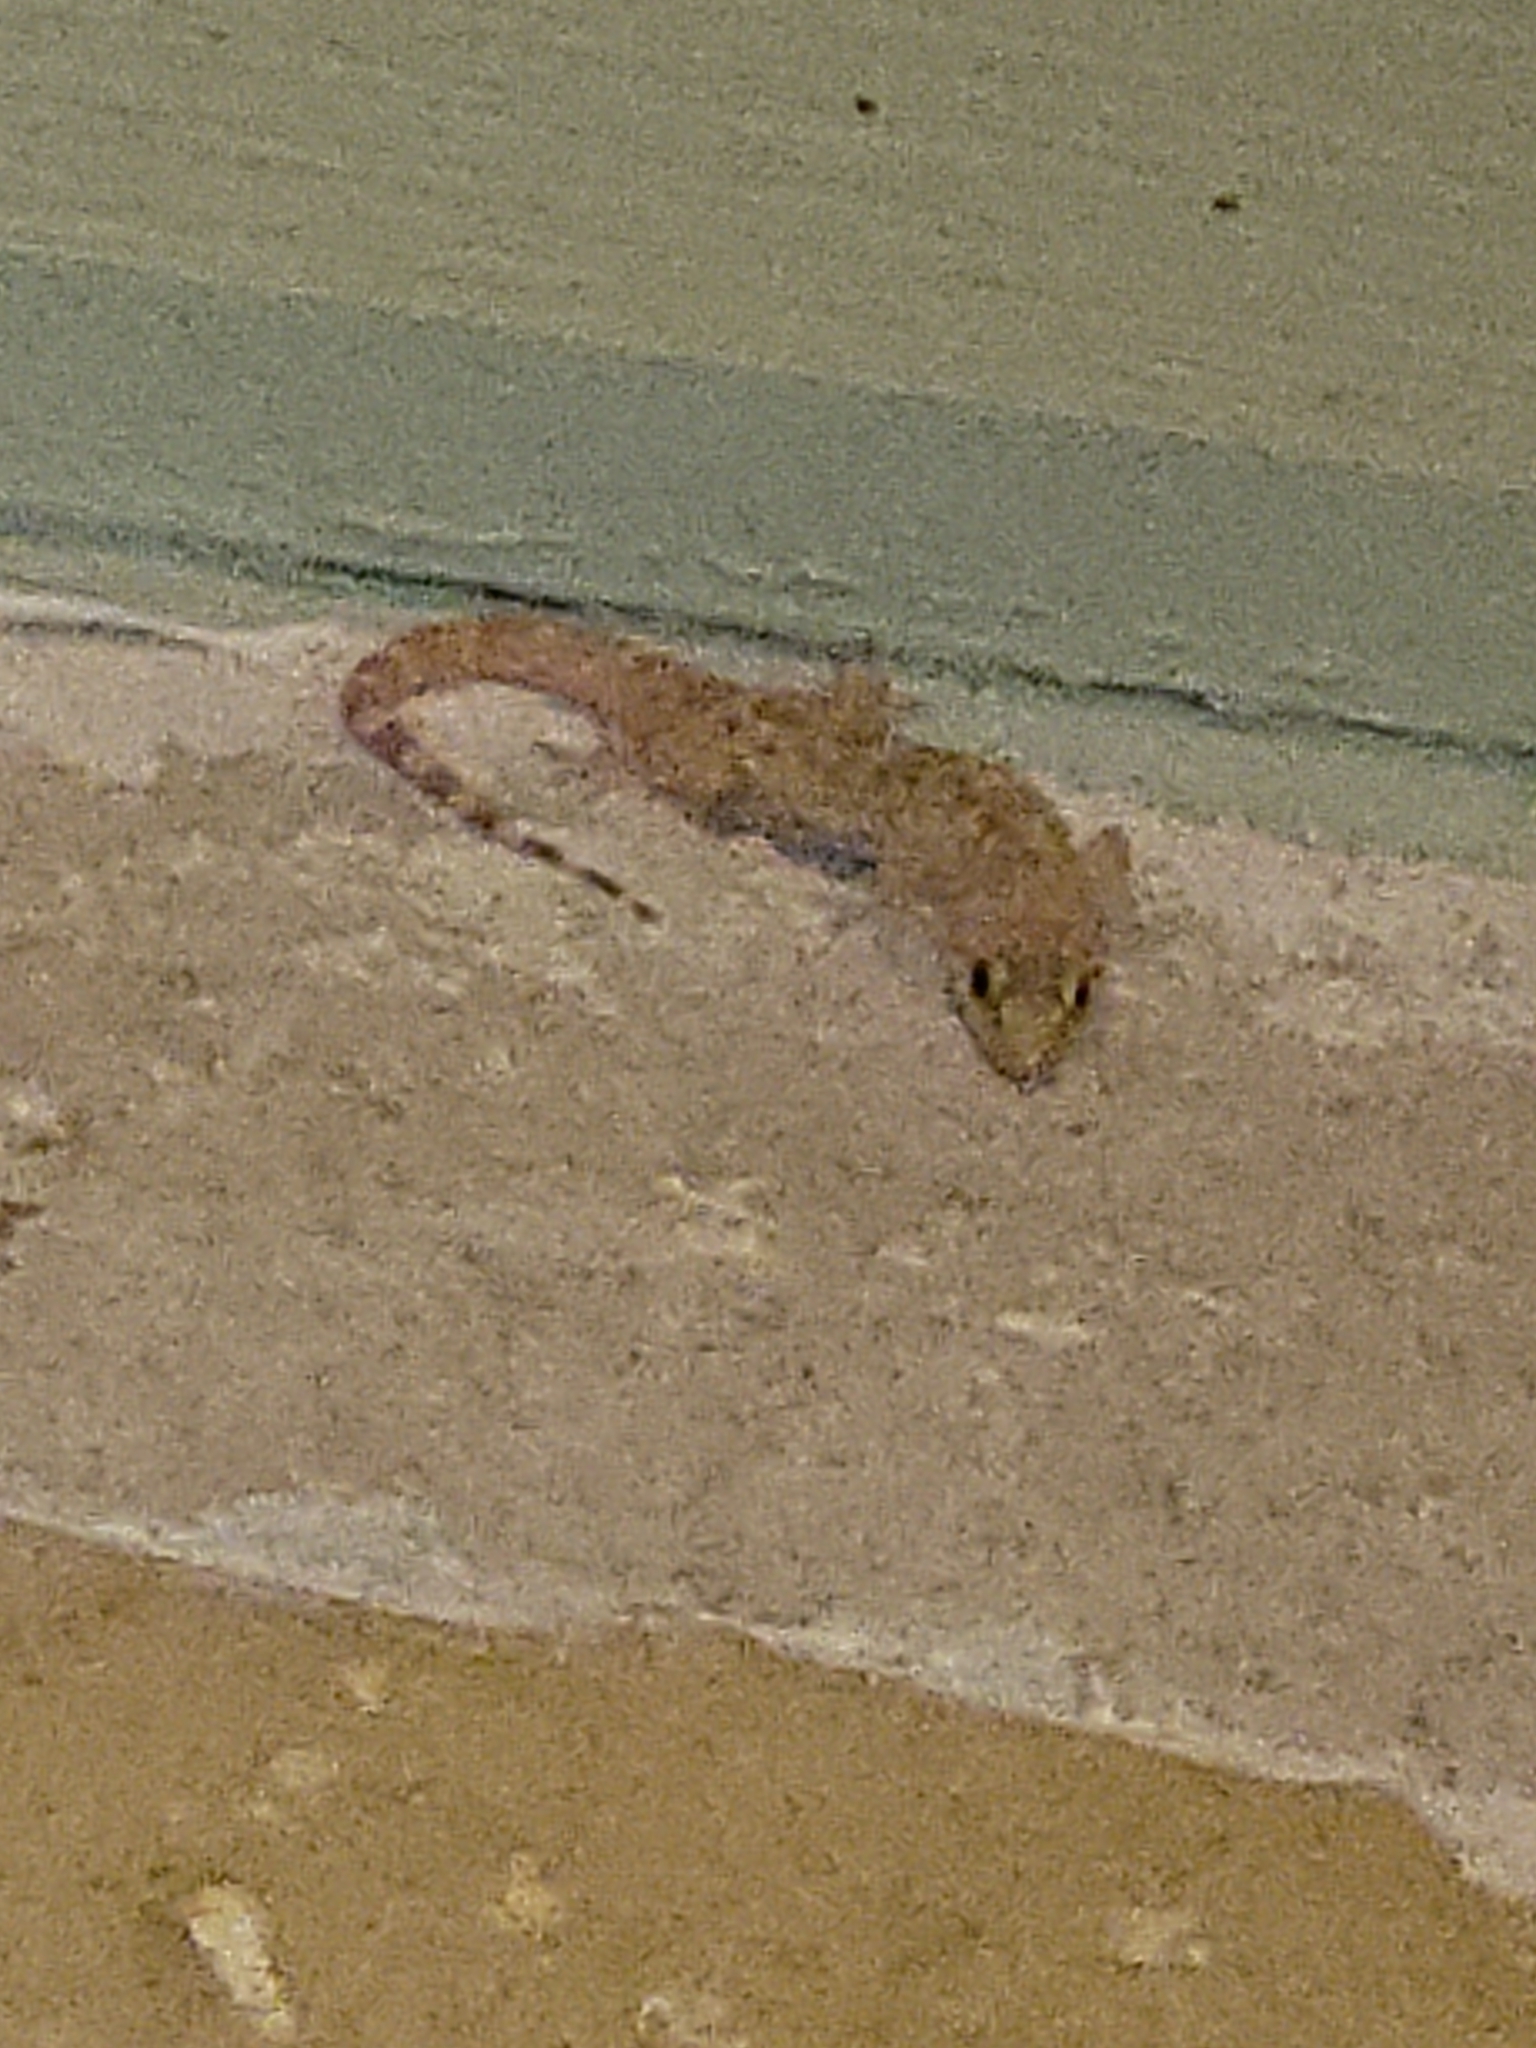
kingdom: Animalia
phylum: Chordata
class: Squamata
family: Gekkonidae
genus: Hemidactylus
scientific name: Hemidactylus turcicus
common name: Turkish gecko
